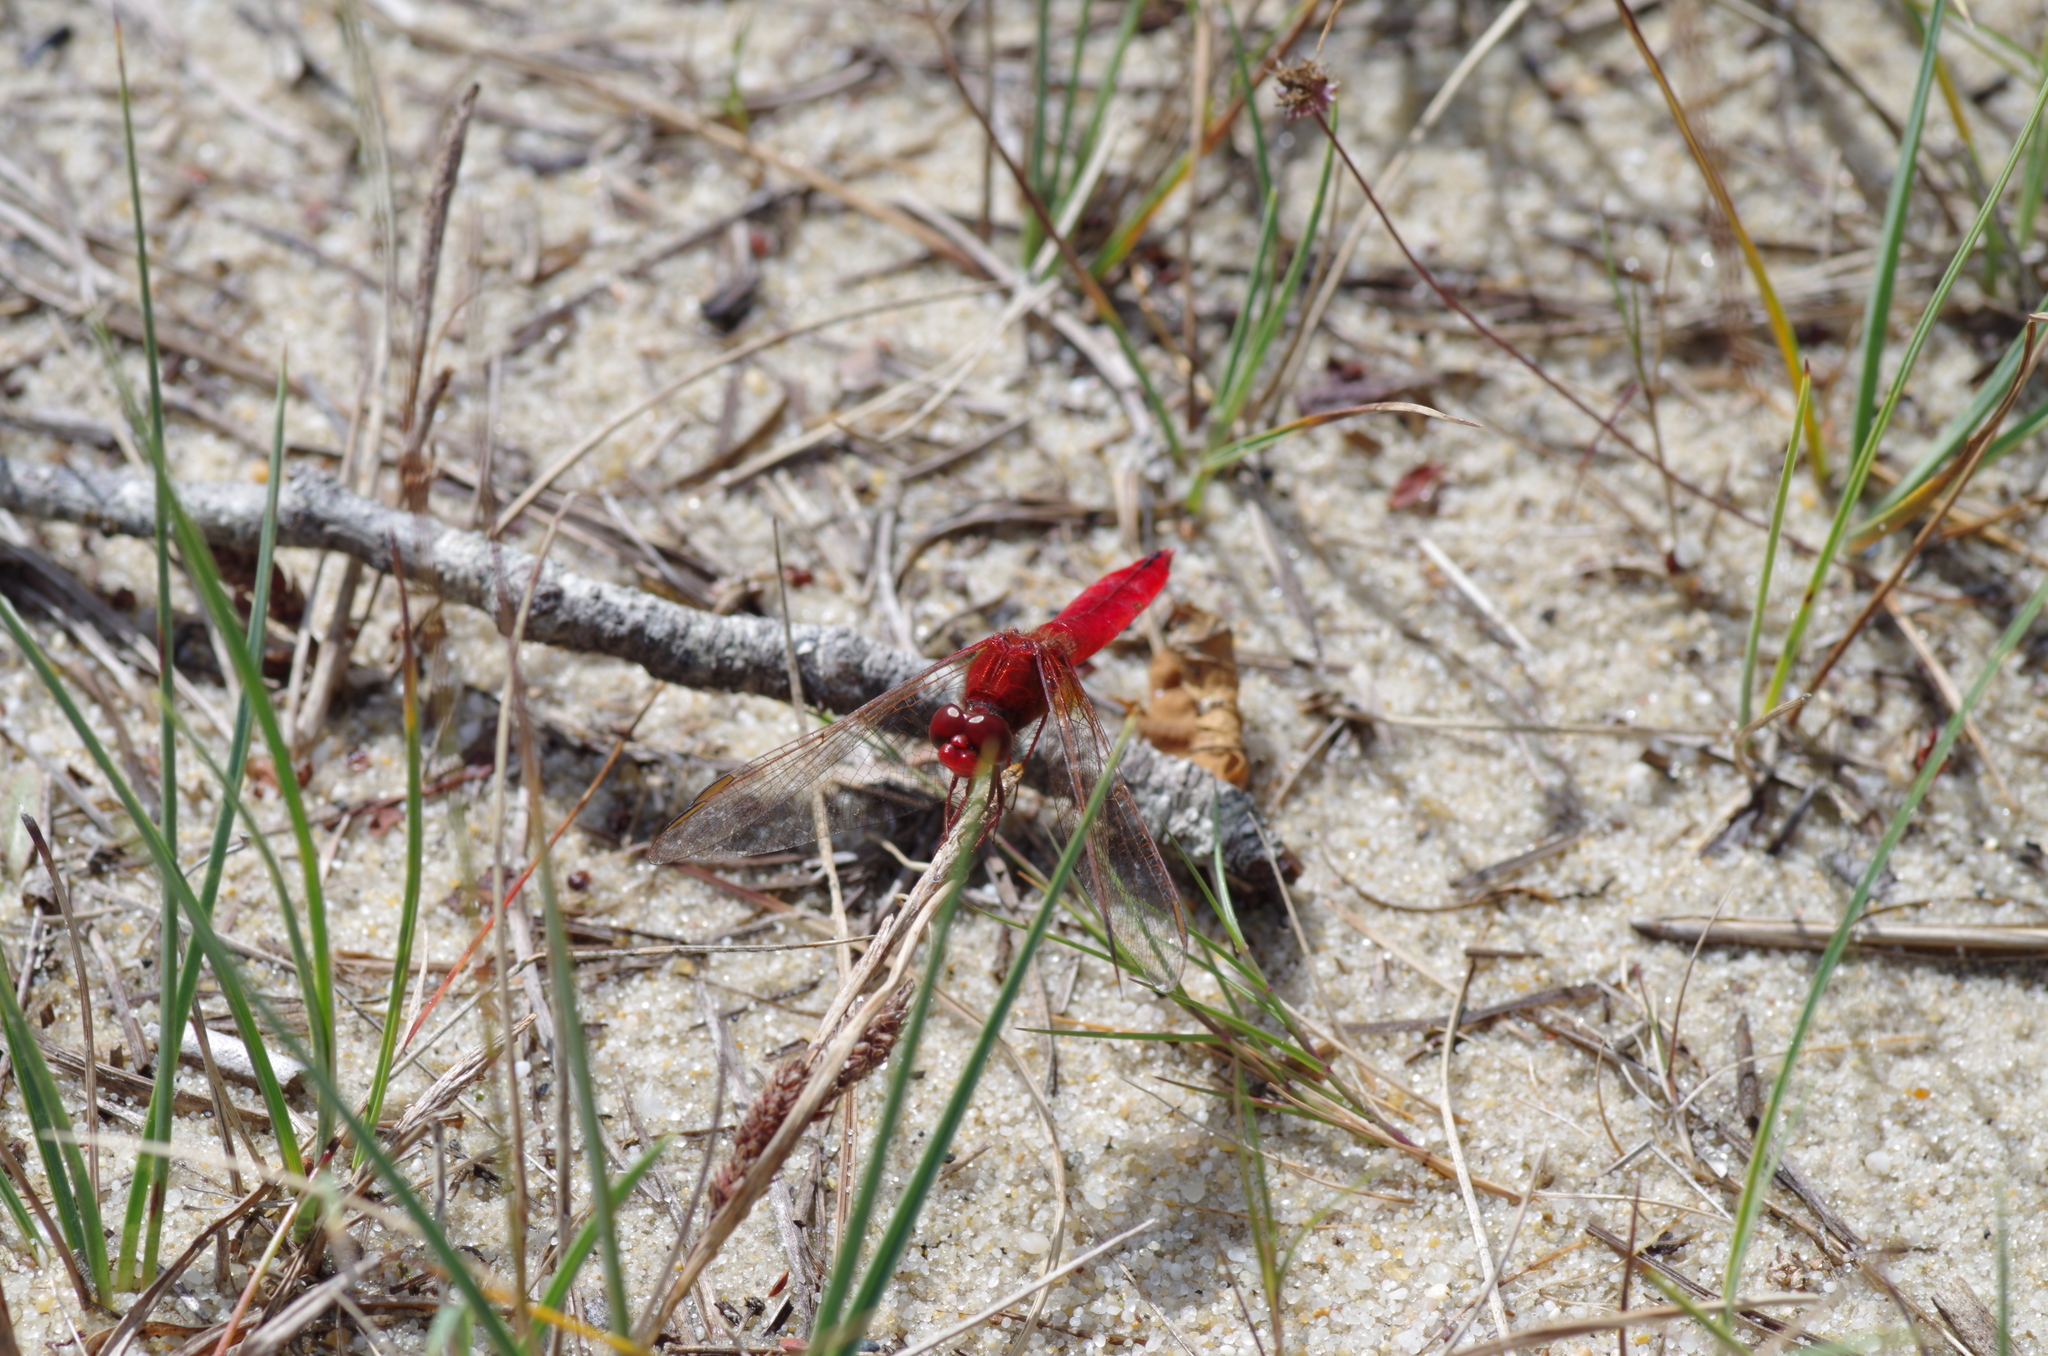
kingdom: Animalia
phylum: Arthropoda
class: Insecta
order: Odonata
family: Libellulidae
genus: Crocothemis
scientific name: Crocothemis erythraea
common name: Scarlet dragonfly
